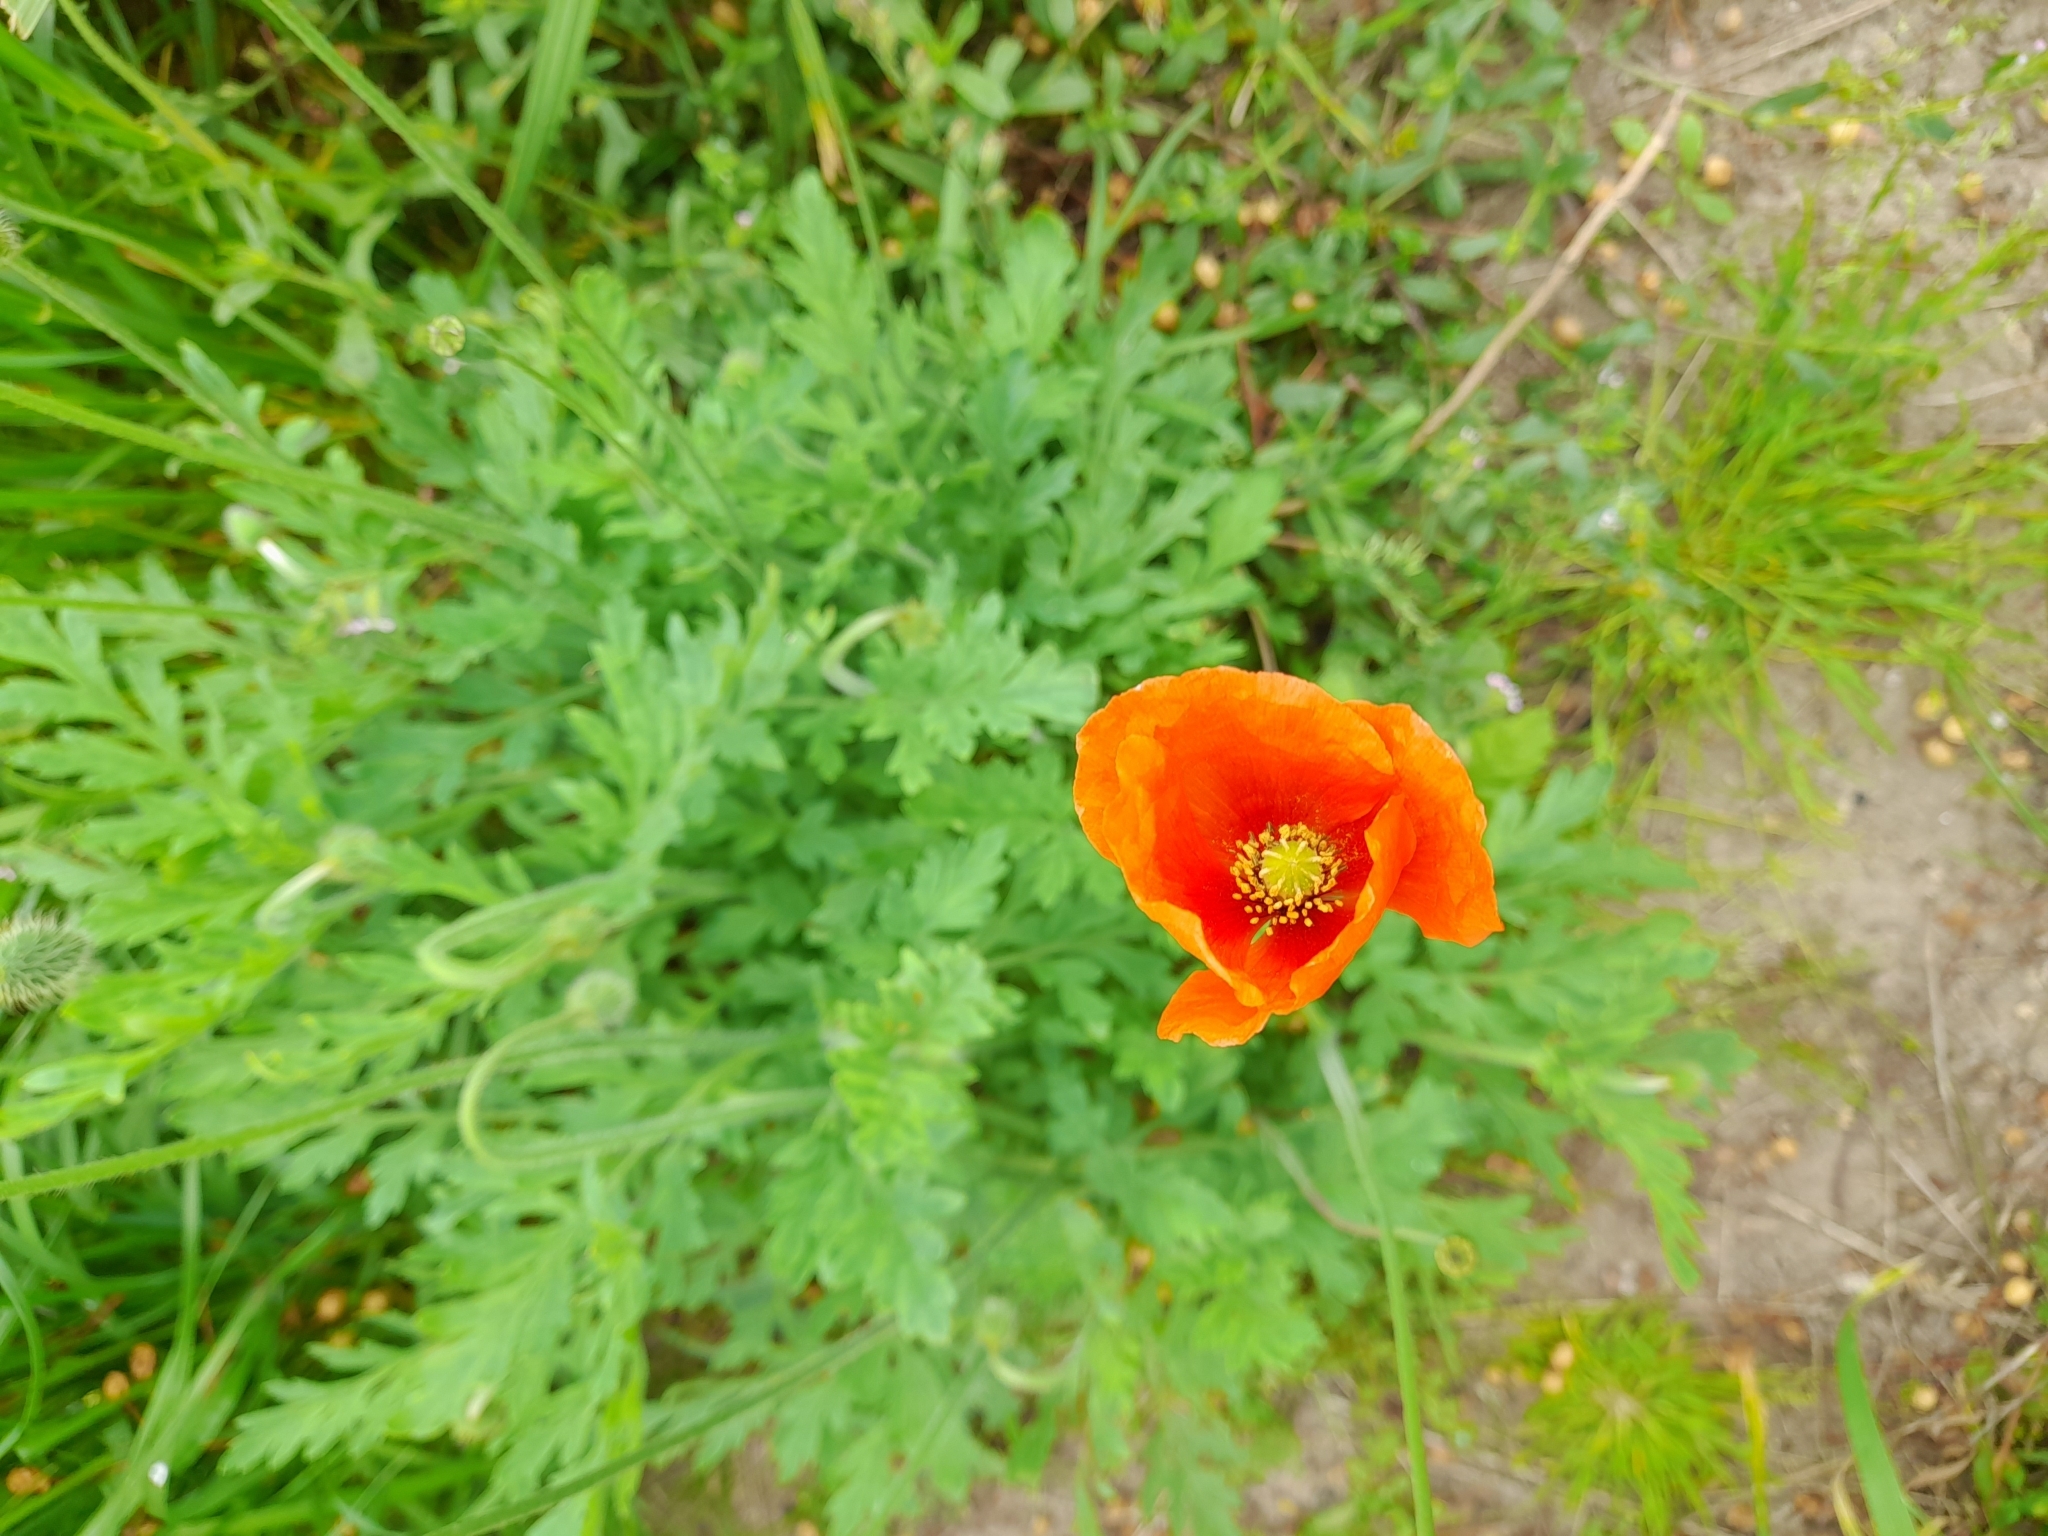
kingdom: Plantae
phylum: Tracheophyta
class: Magnoliopsida
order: Ranunculales
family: Papaveraceae
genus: Papaver
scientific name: Papaver dubium
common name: Long-headed poppy
